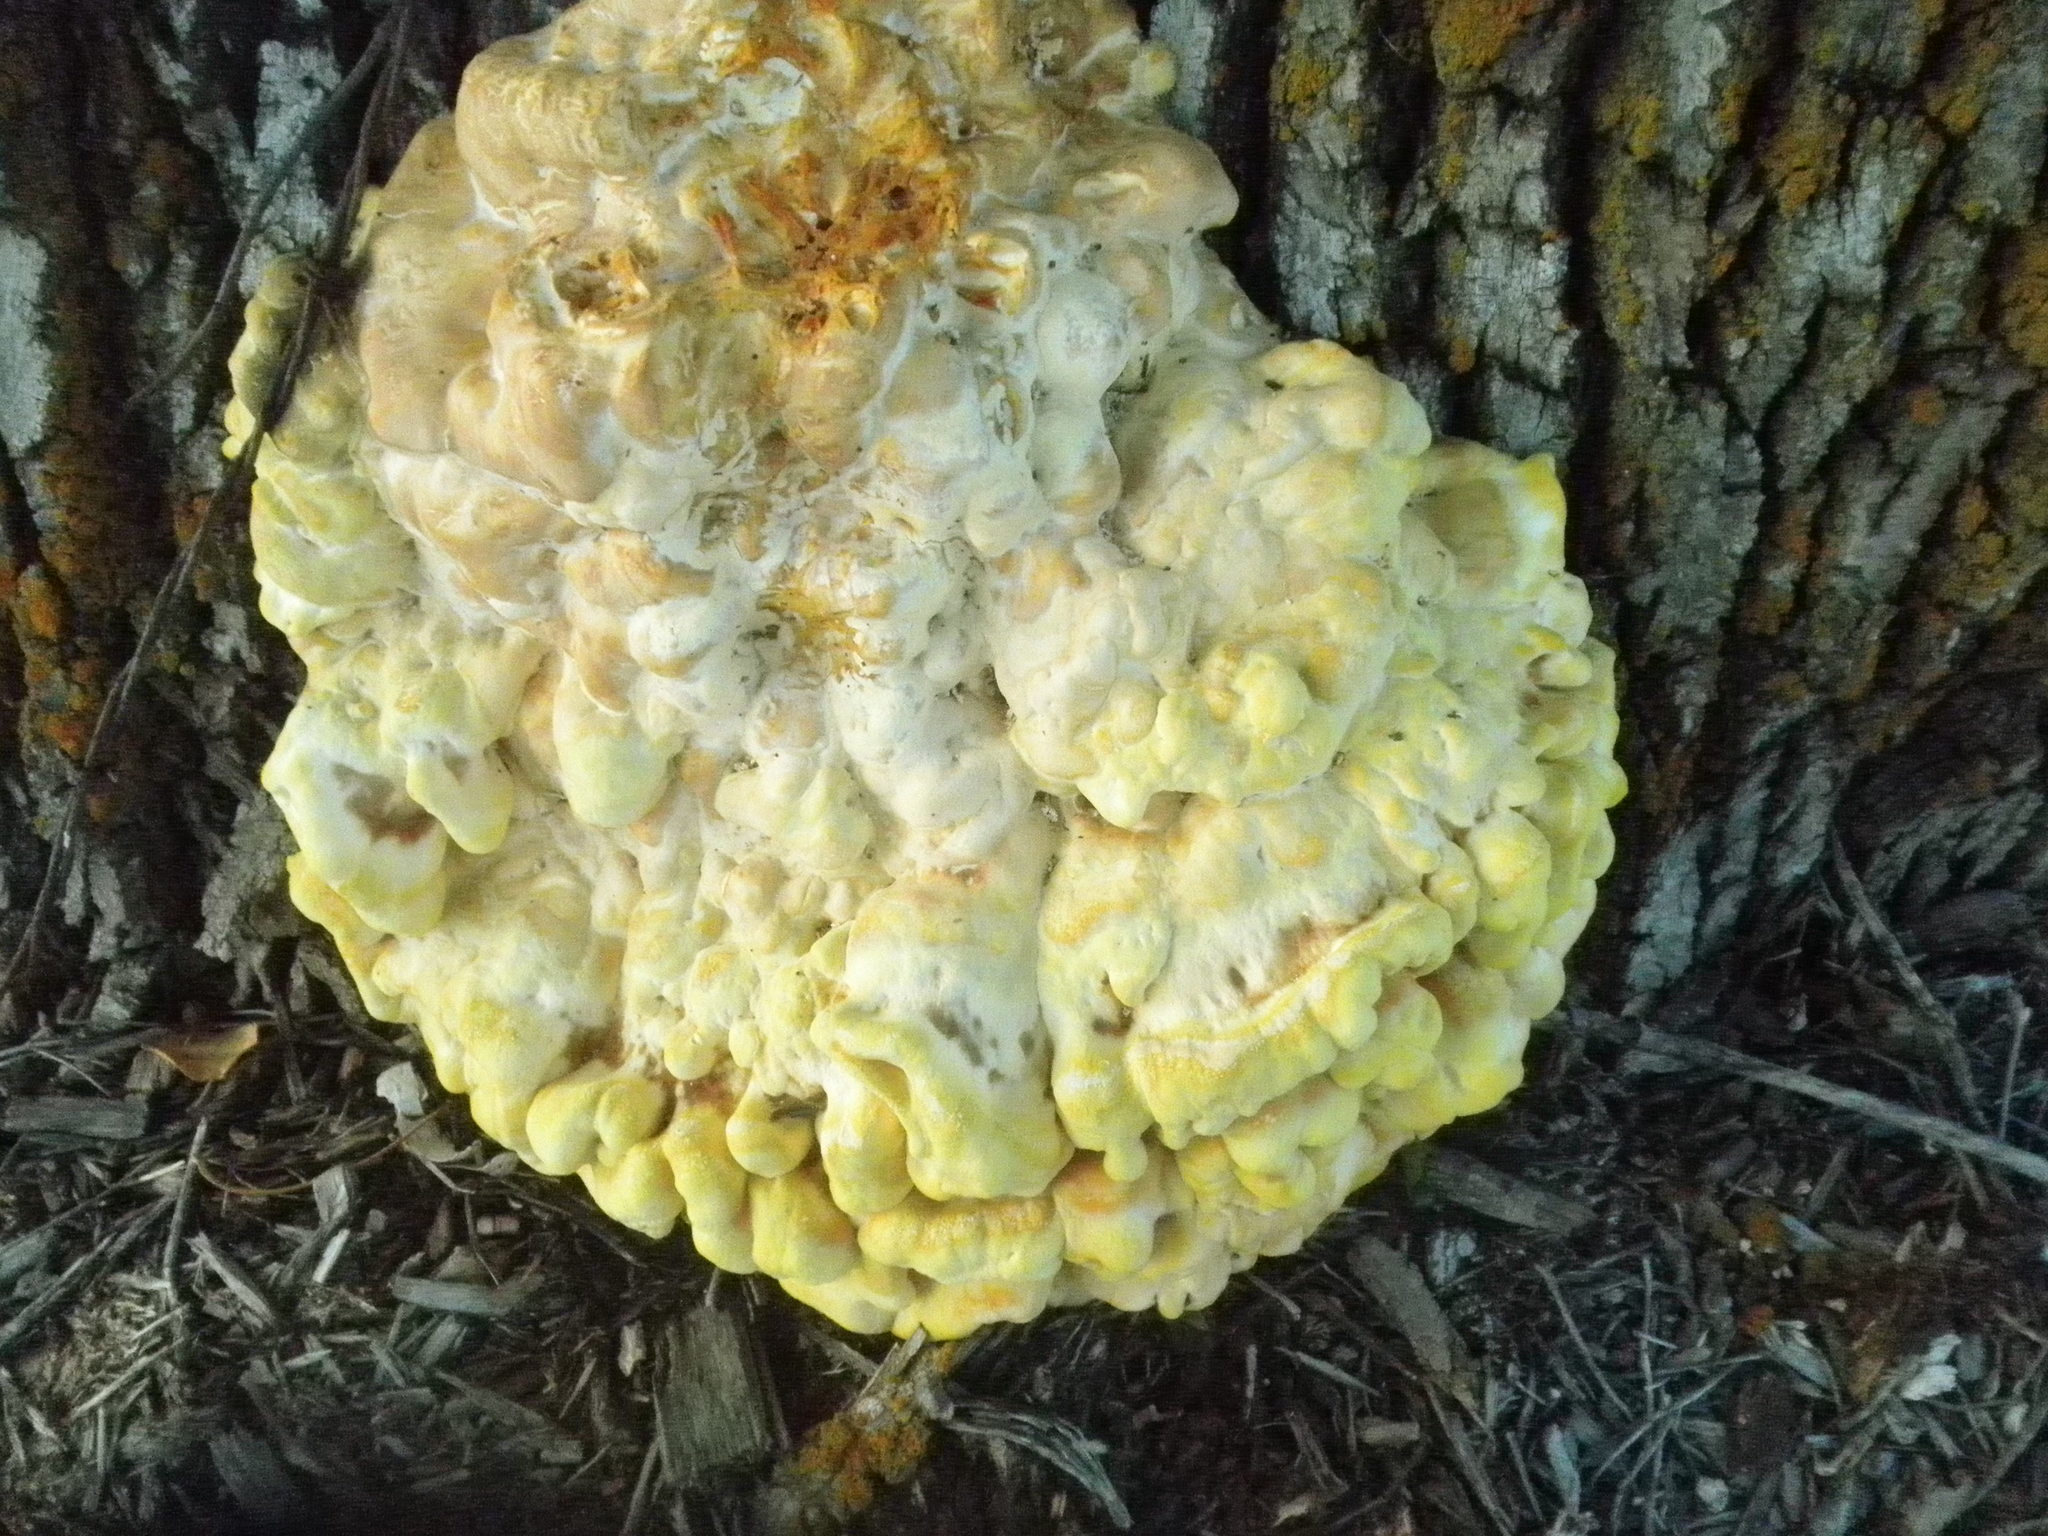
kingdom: Fungi
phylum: Basidiomycota
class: Agaricomycetes
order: Polyporales
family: Laetiporaceae
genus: Laetiporus
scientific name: Laetiporus sulphureus
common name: Chicken of the woods
